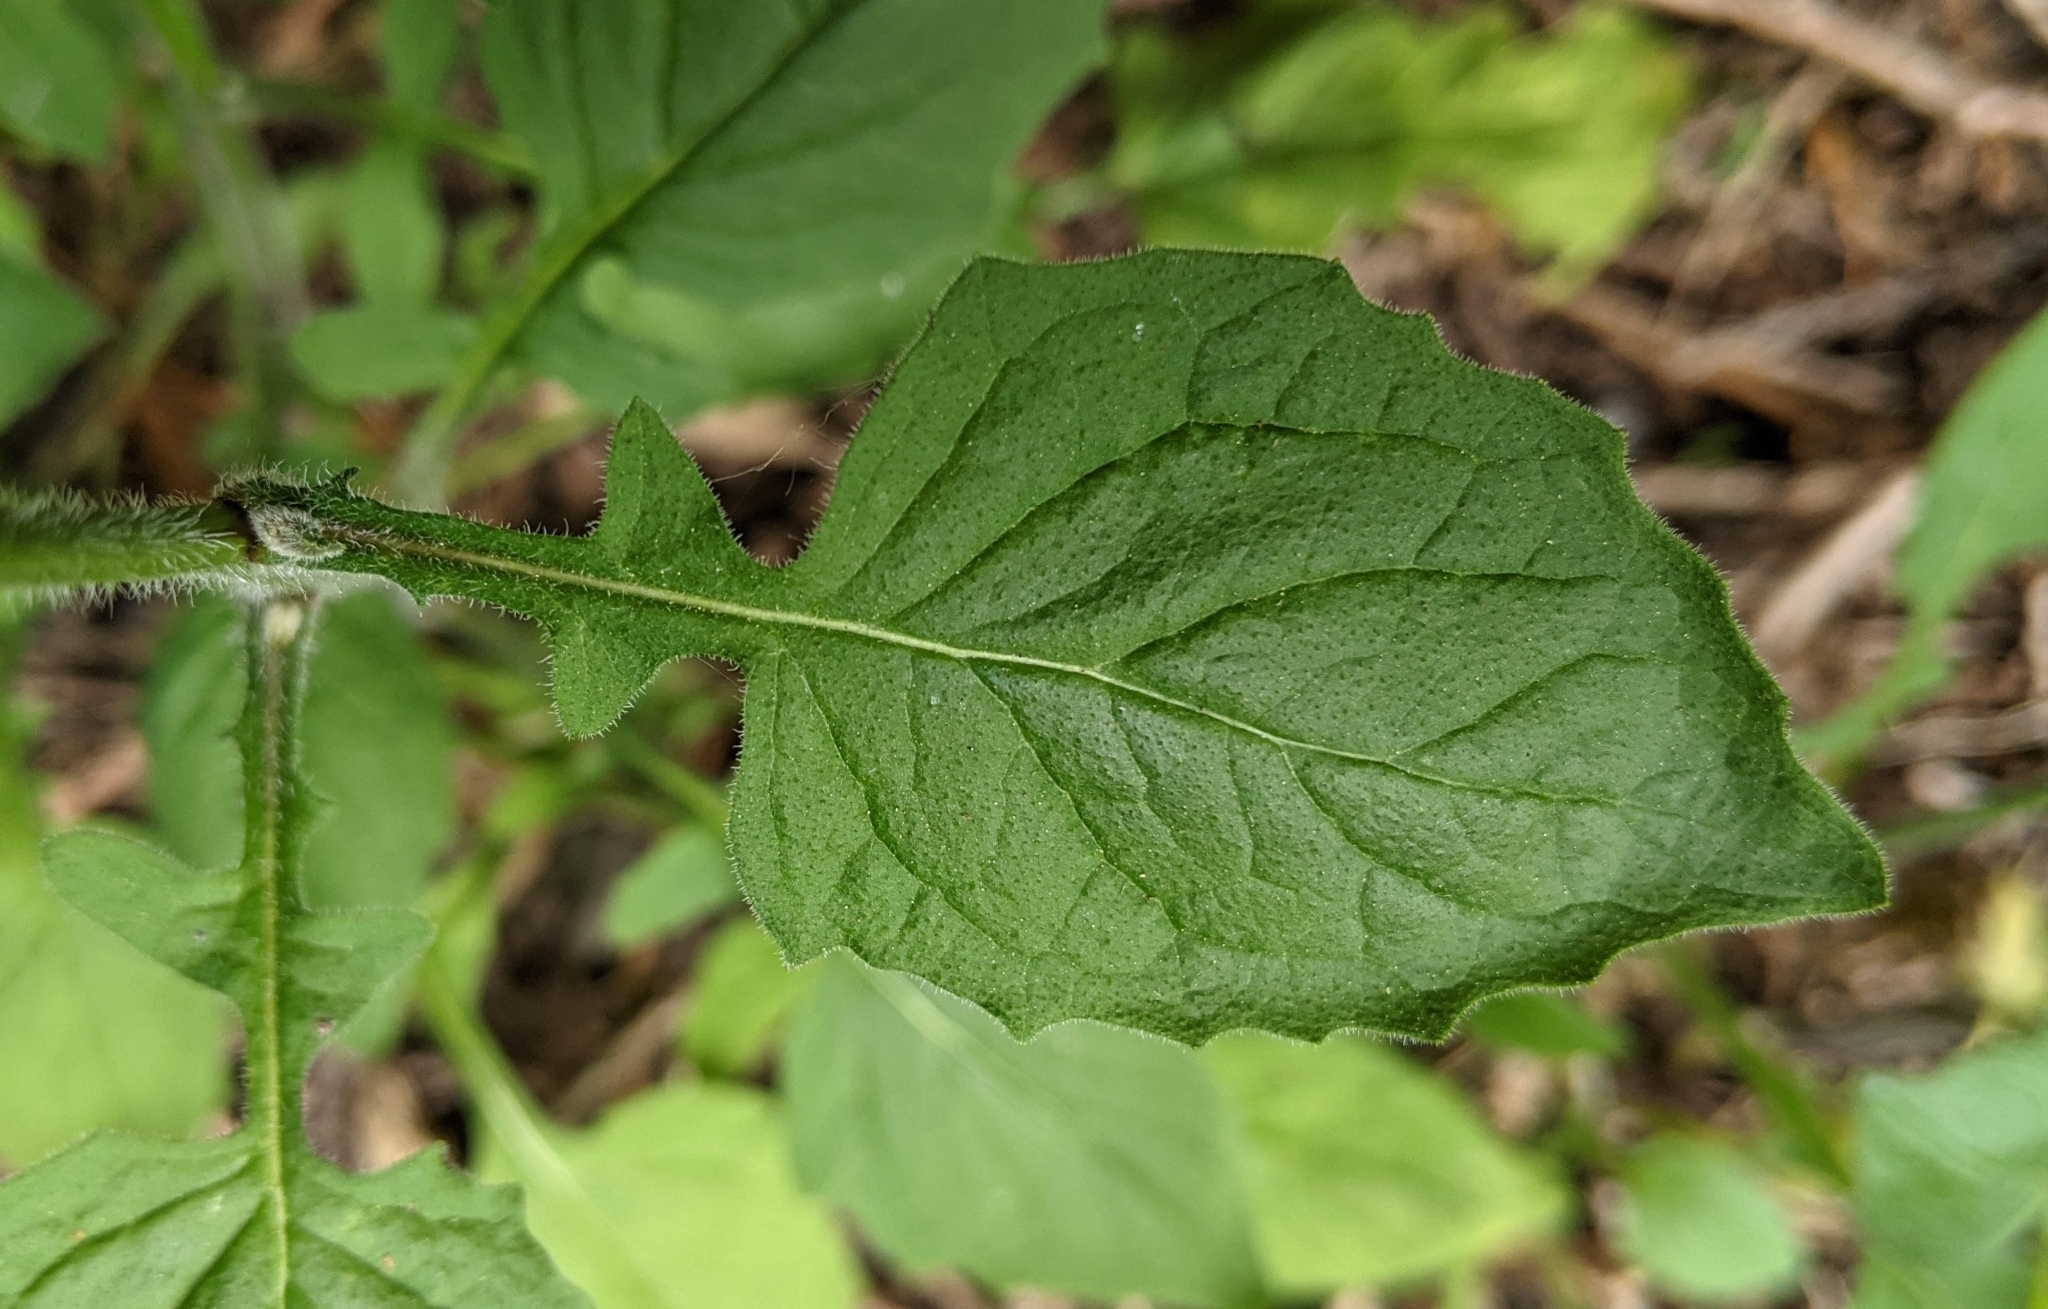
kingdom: Plantae
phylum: Tracheophyta
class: Magnoliopsida
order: Asterales
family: Asteraceae
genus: Lapsana
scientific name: Lapsana communis
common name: Nipplewort
